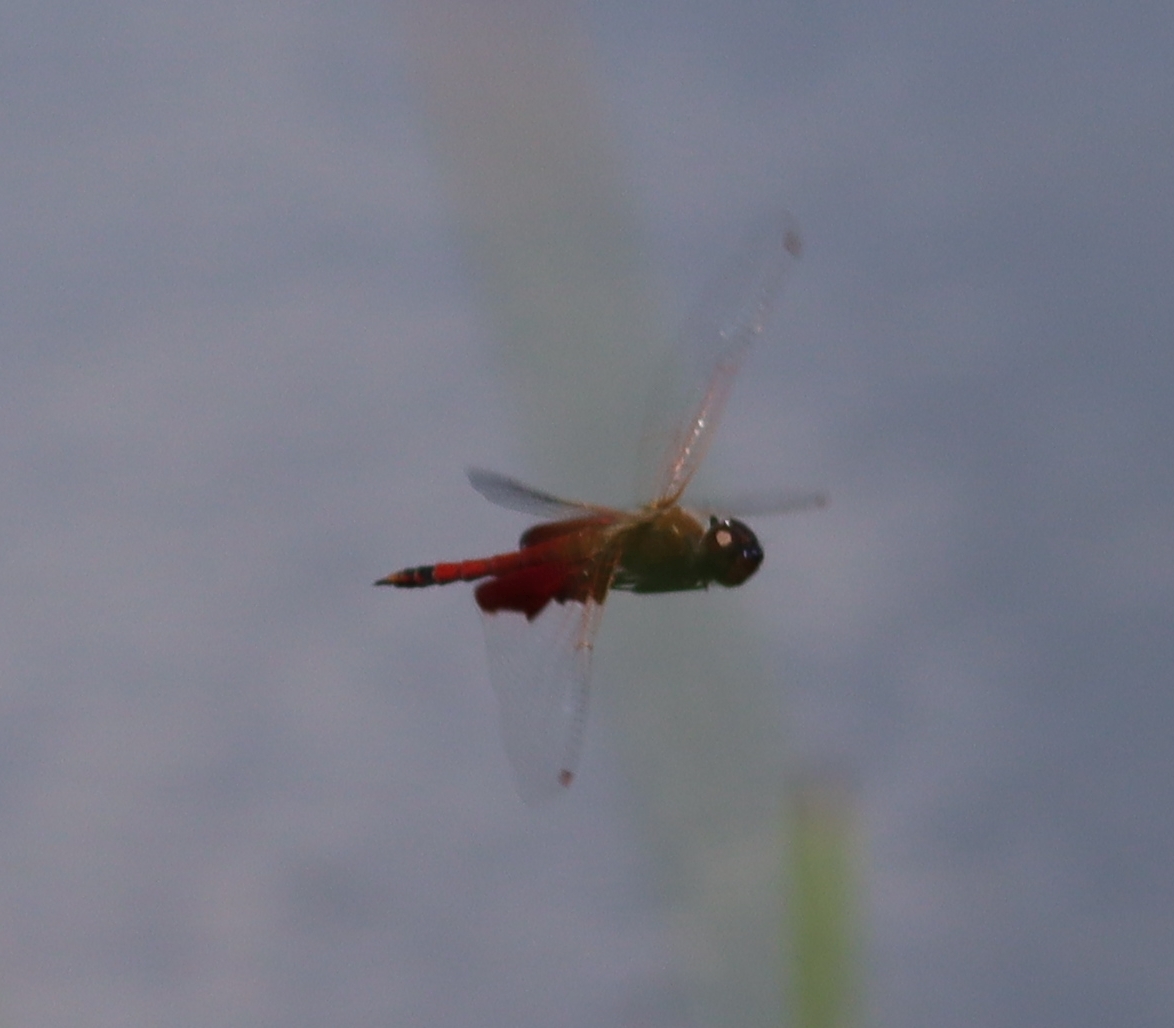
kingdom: Animalia
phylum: Arthropoda
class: Insecta
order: Odonata
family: Libellulidae
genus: Tramea
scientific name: Tramea carolina
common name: Carolina saddlebags
